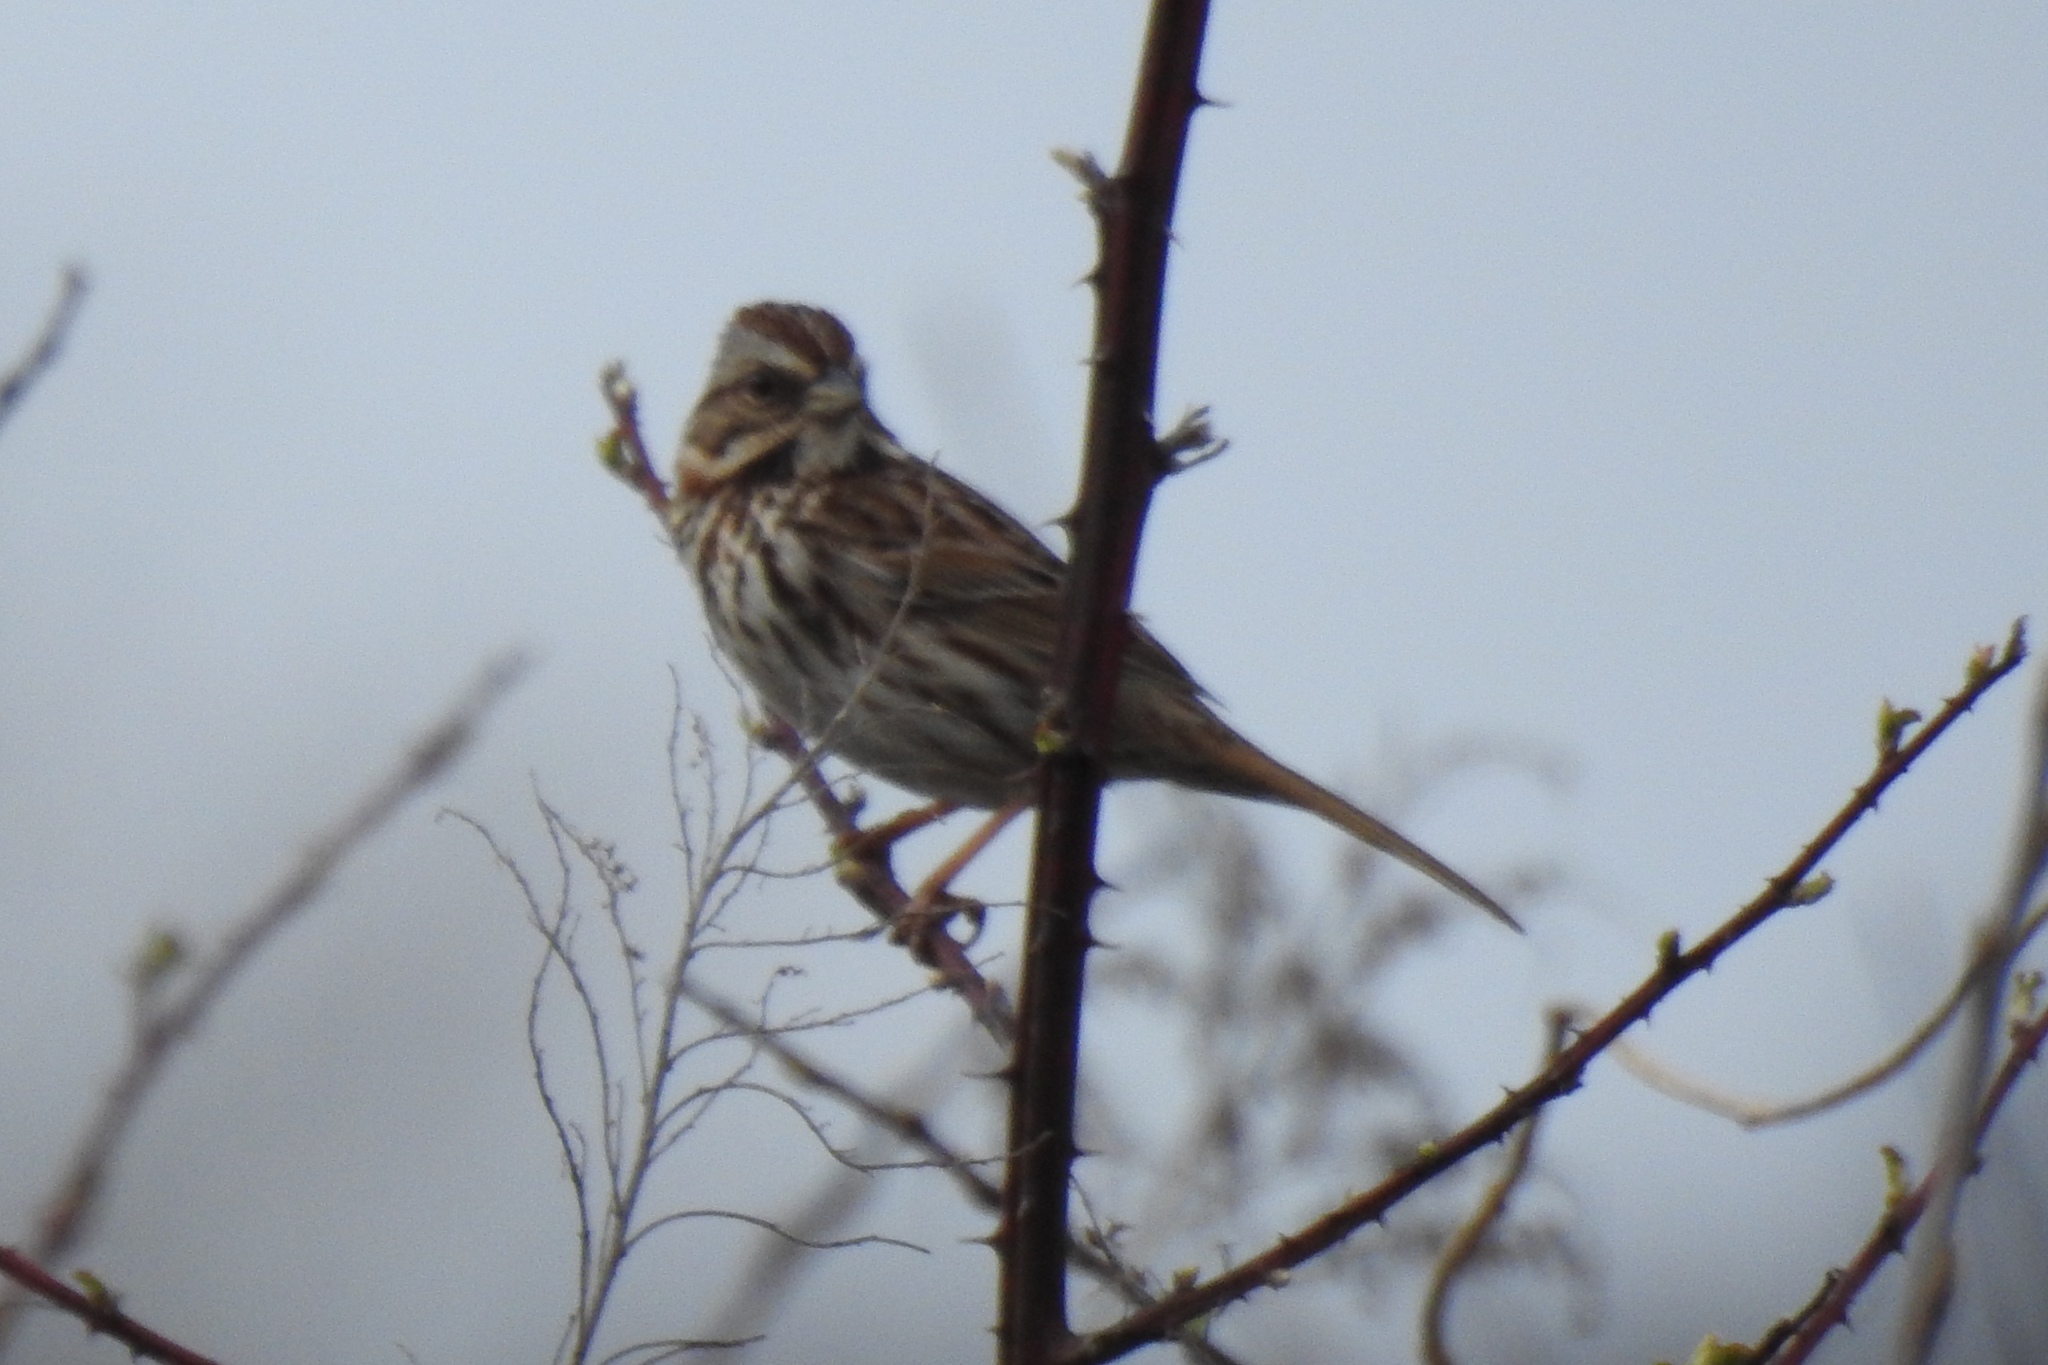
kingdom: Animalia
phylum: Chordata
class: Aves
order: Passeriformes
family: Passerellidae
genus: Melospiza
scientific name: Melospiza melodia
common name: Song sparrow
